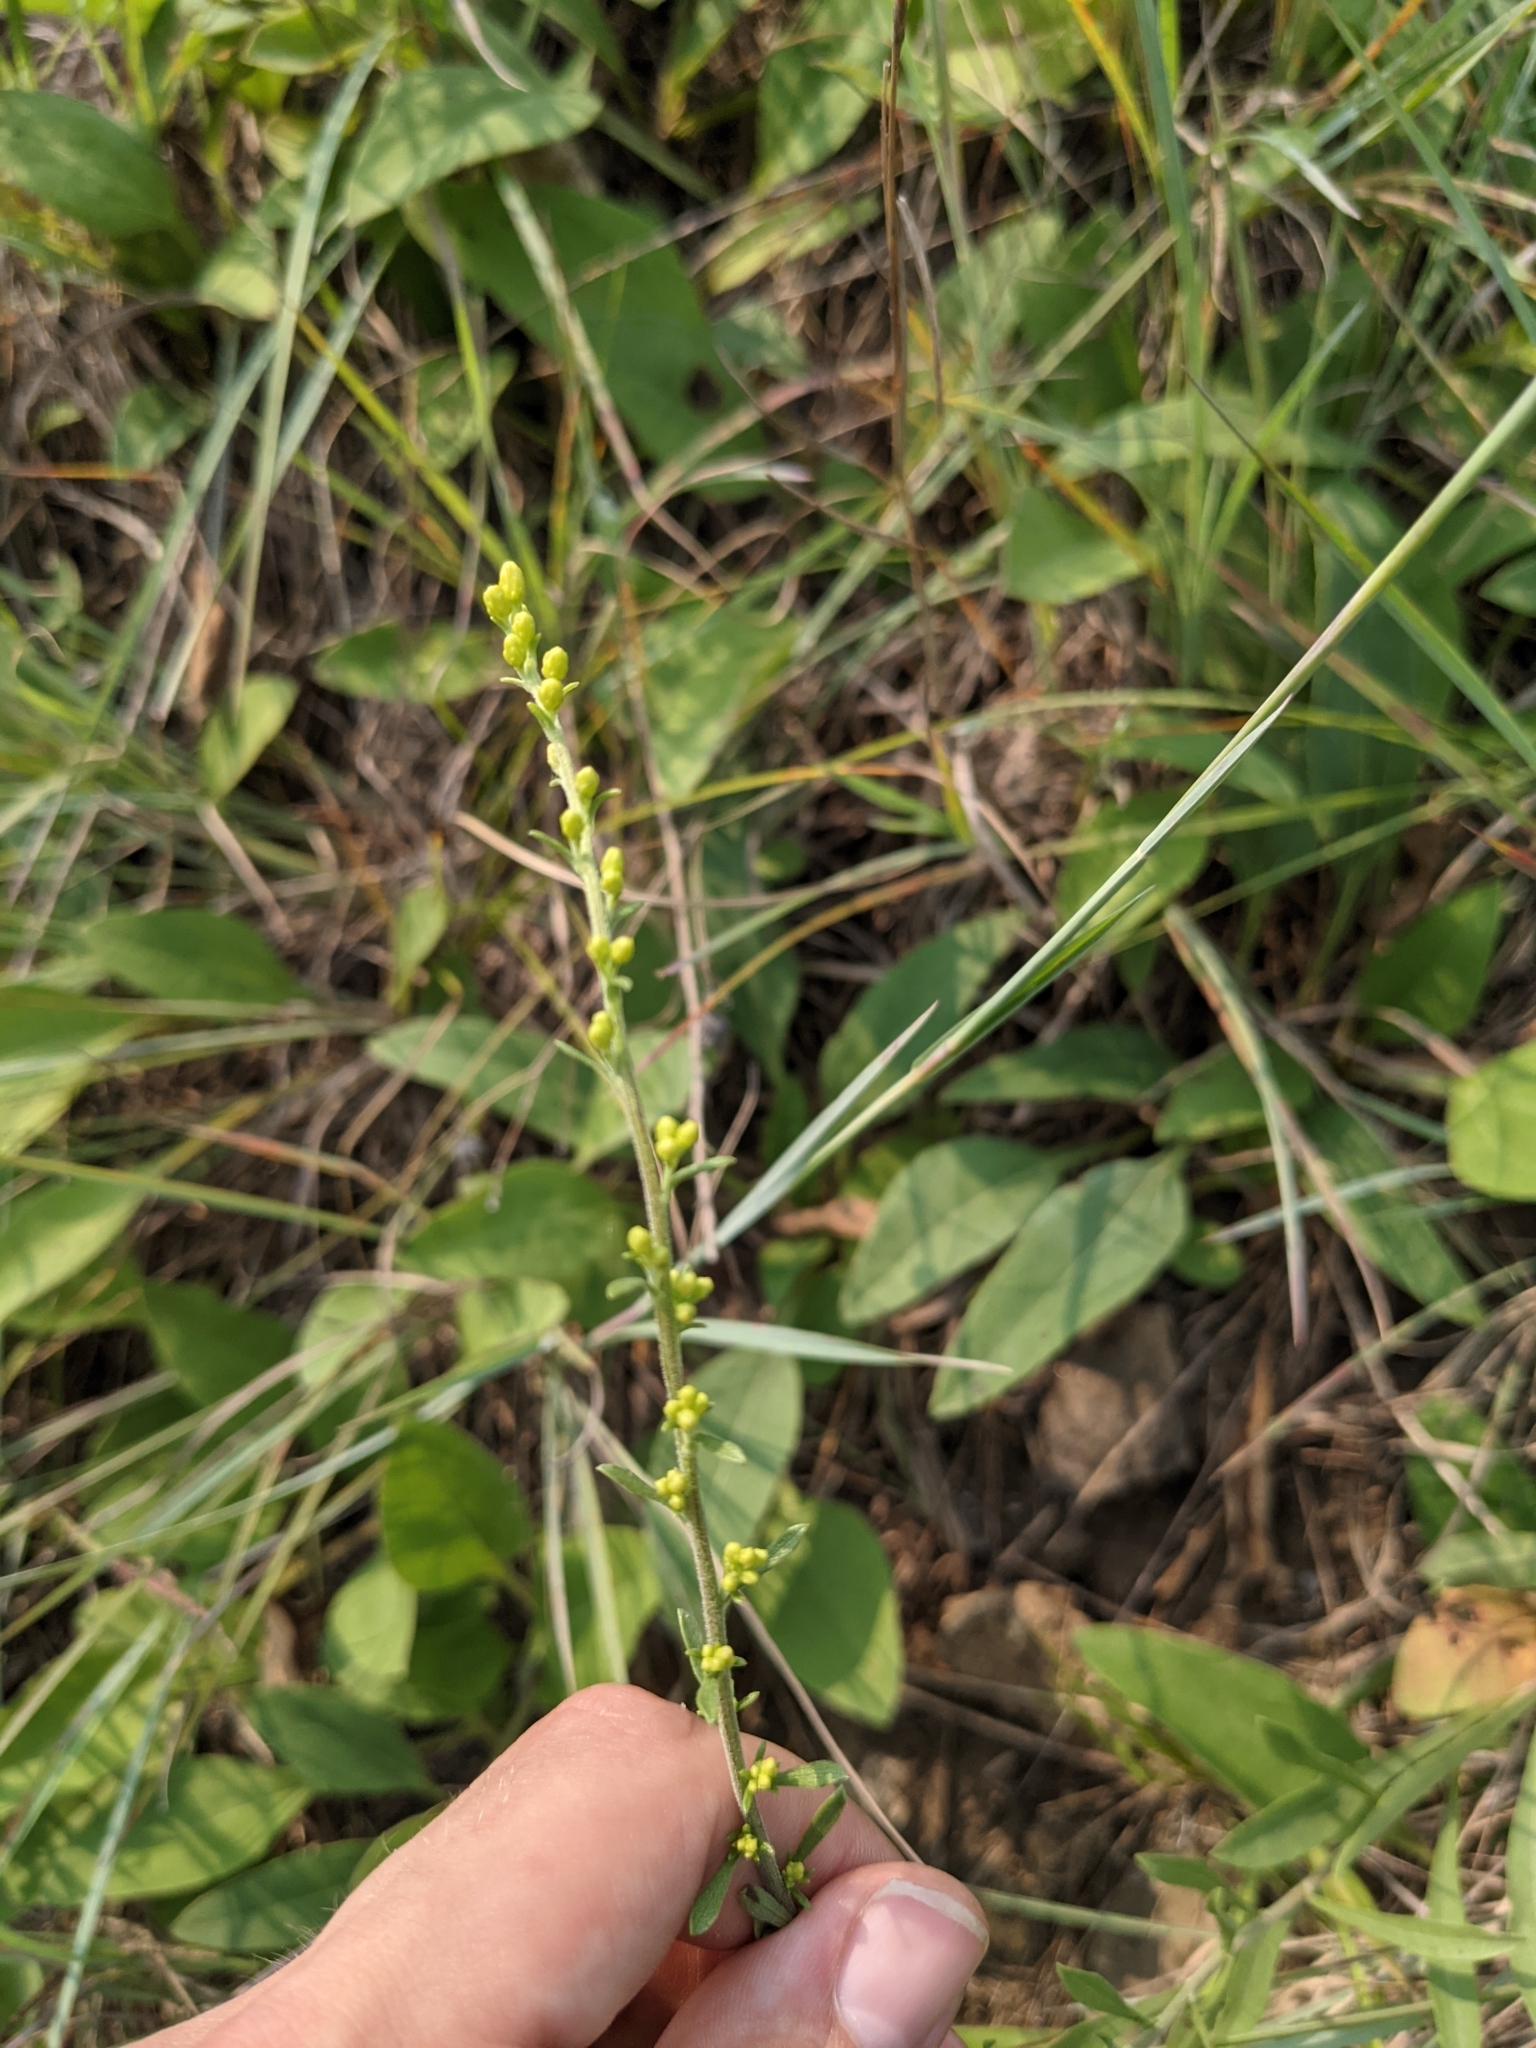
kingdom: Plantae
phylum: Tracheophyta
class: Magnoliopsida
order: Asterales
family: Asteraceae
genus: Solidago
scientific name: Solidago nemoralis
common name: Grey goldenrod
